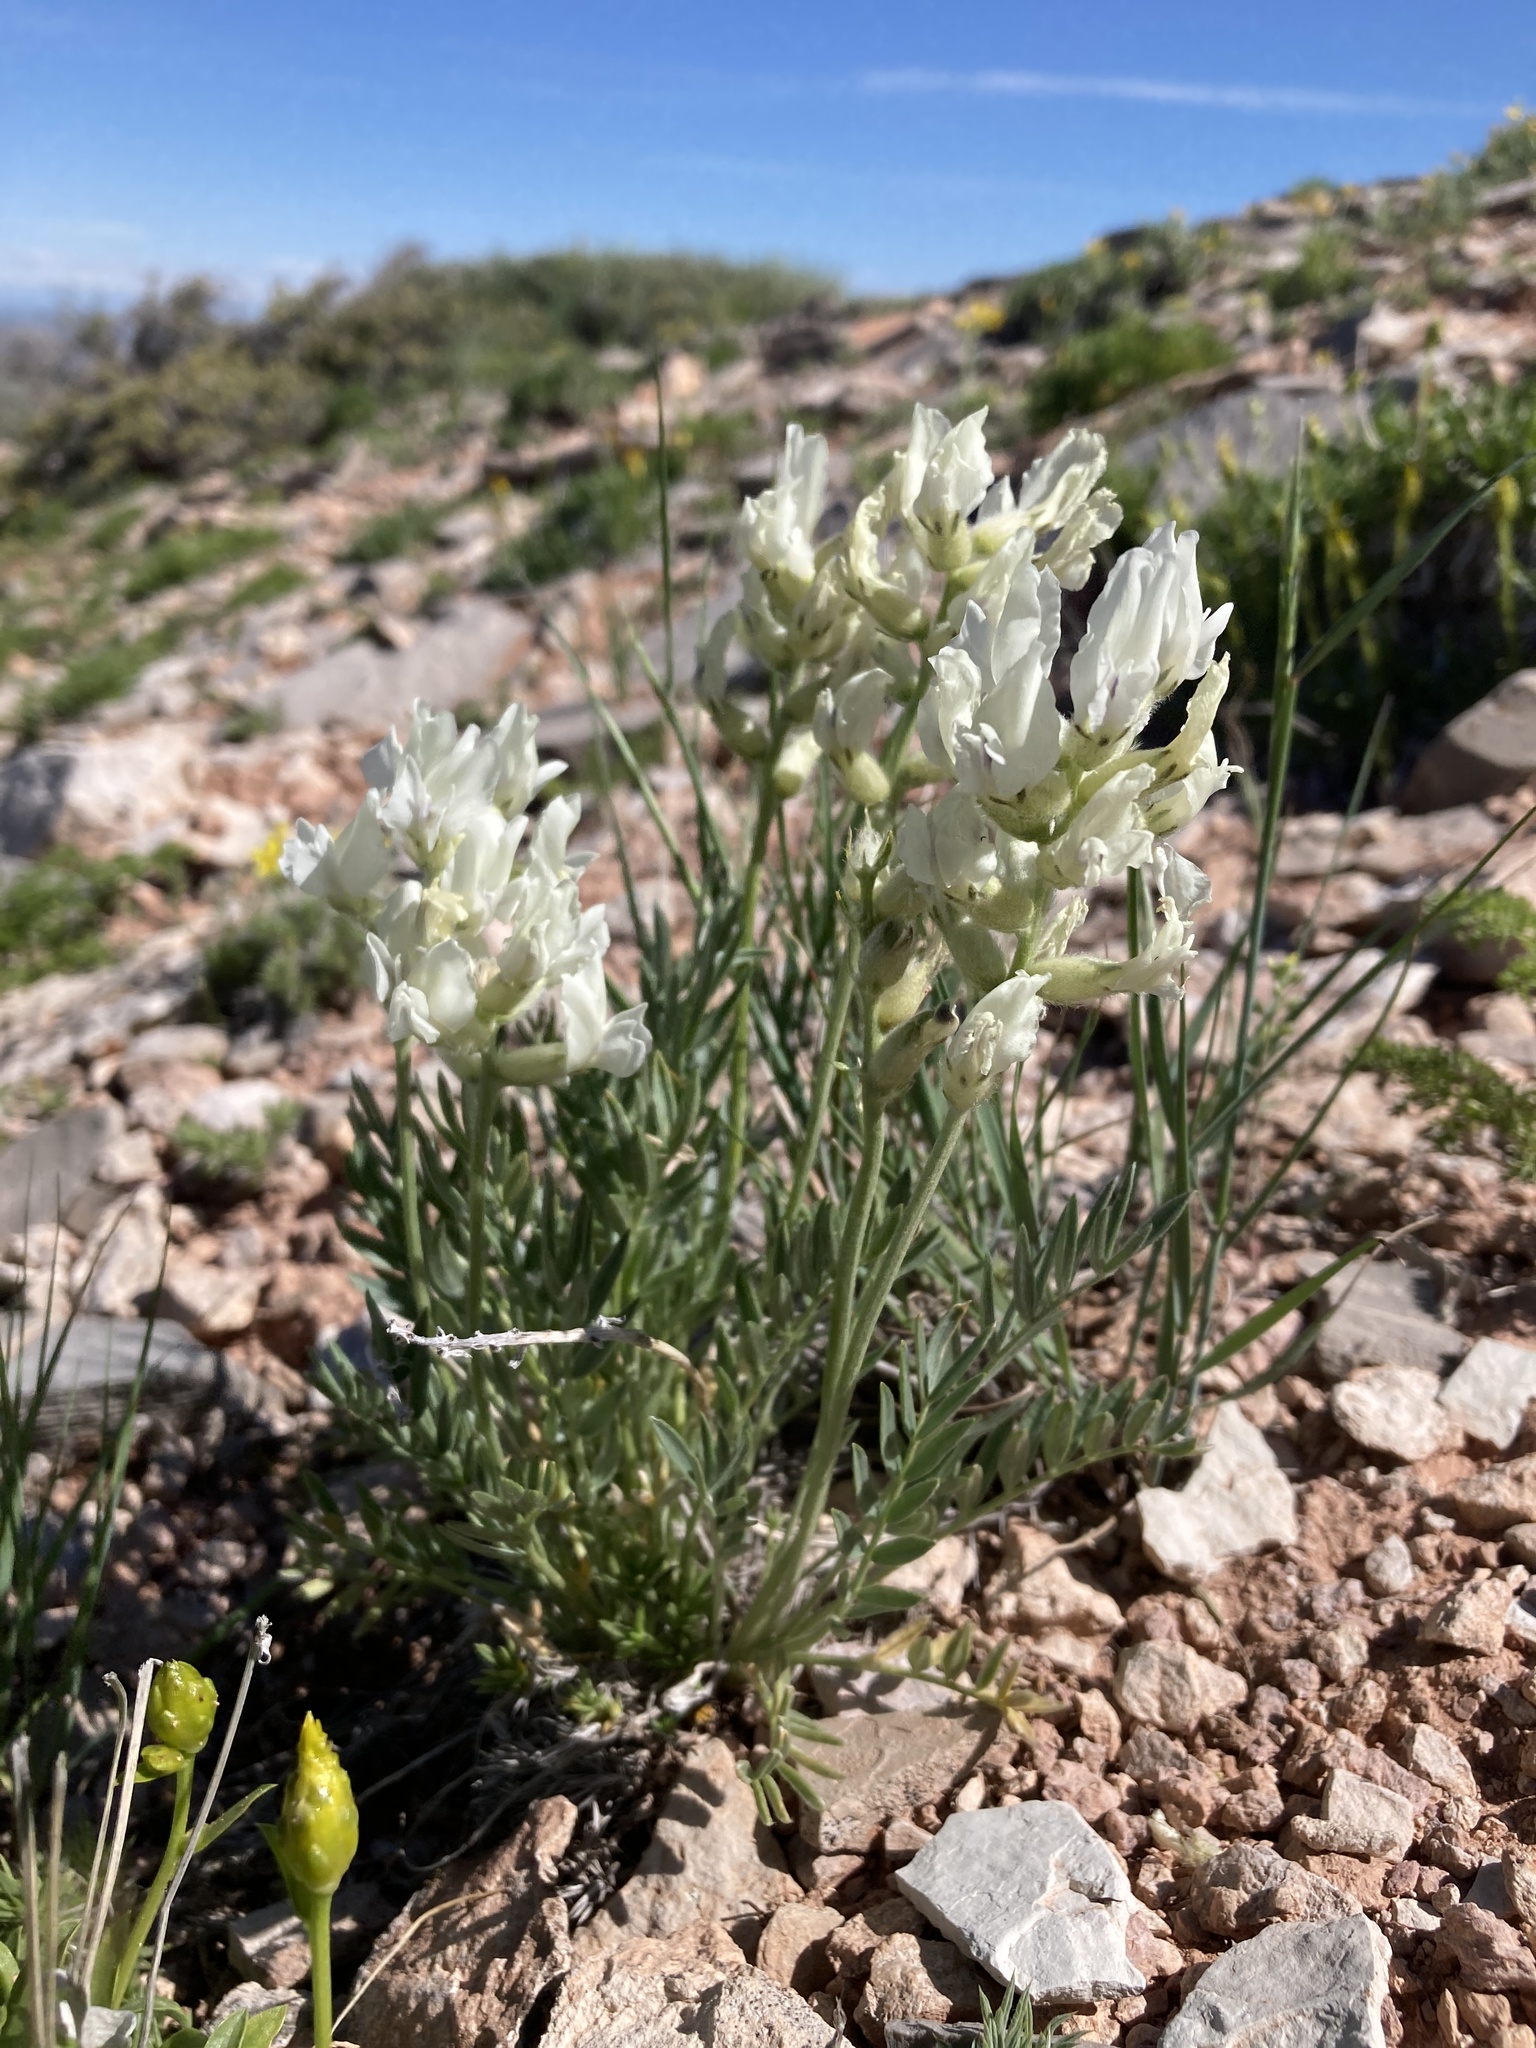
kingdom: Plantae
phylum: Tracheophyta
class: Magnoliopsida
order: Fabales
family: Fabaceae
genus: Oxytropis
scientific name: Oxytropis sericea
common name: Silky locoweed
